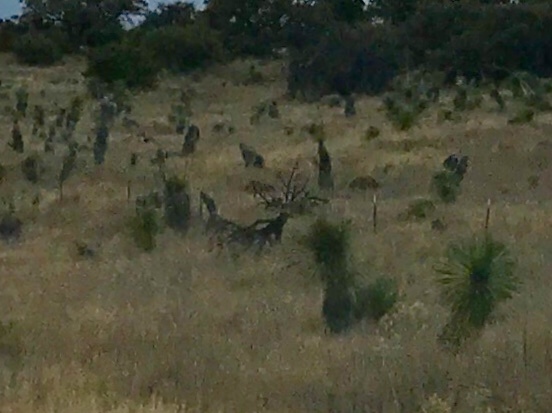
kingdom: Plantae
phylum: Tracheophyta
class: Liliopsida
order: Asparagales
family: Asparagaceae
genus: Yucca
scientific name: Yucca elata
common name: Palmella
